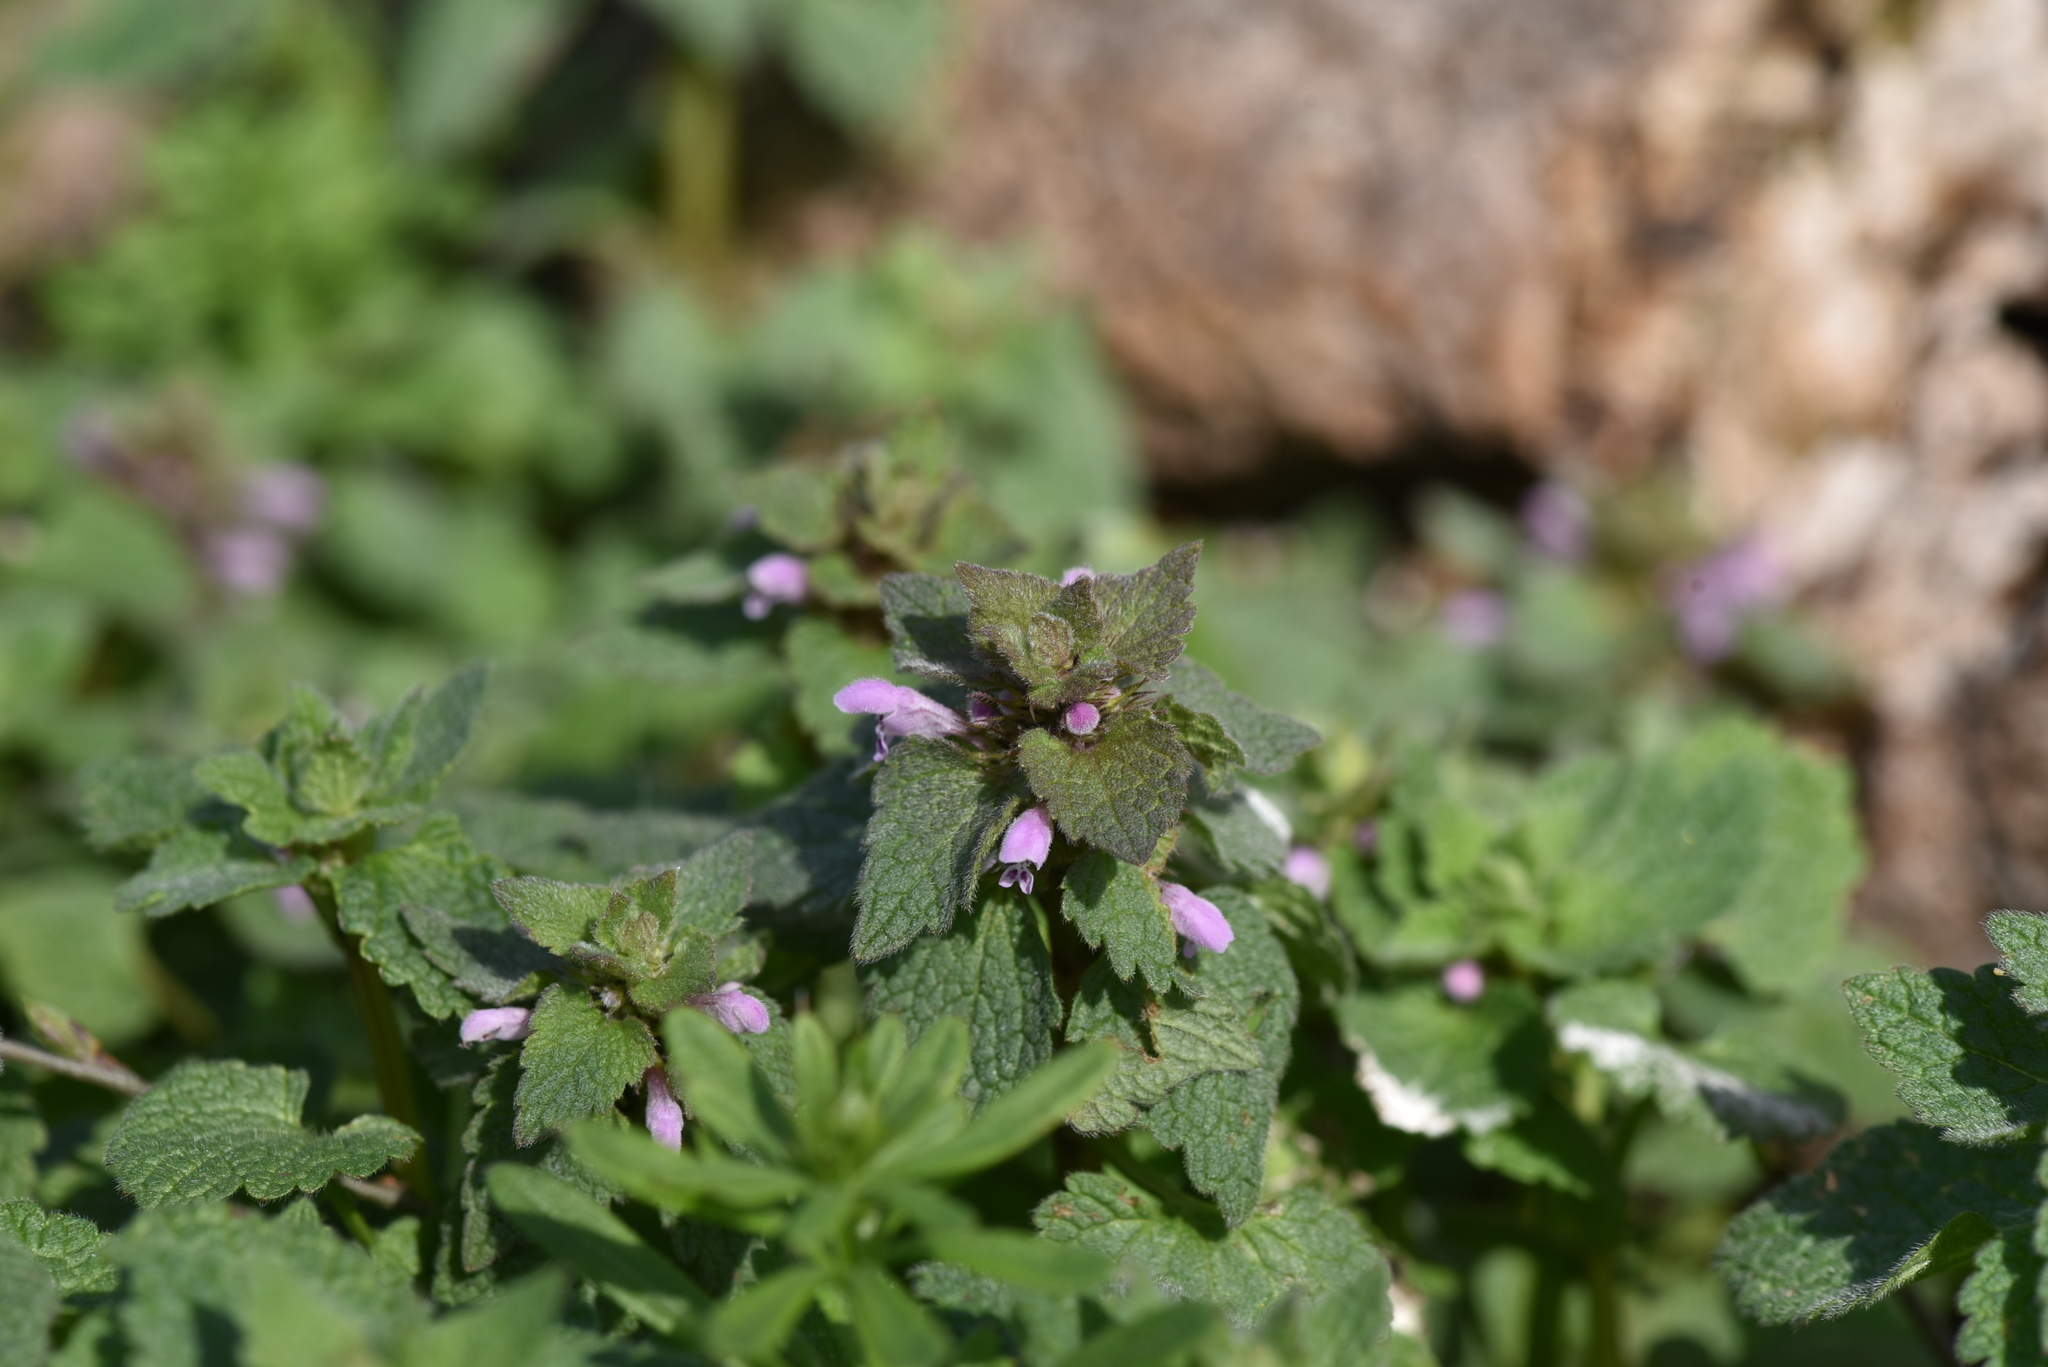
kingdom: Plantae
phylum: Tracheophyta
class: Magnoliopsida
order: Lamiales
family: Lamiaceae
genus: Lamium
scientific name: Lamium purpureum
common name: Red dead-nettle
